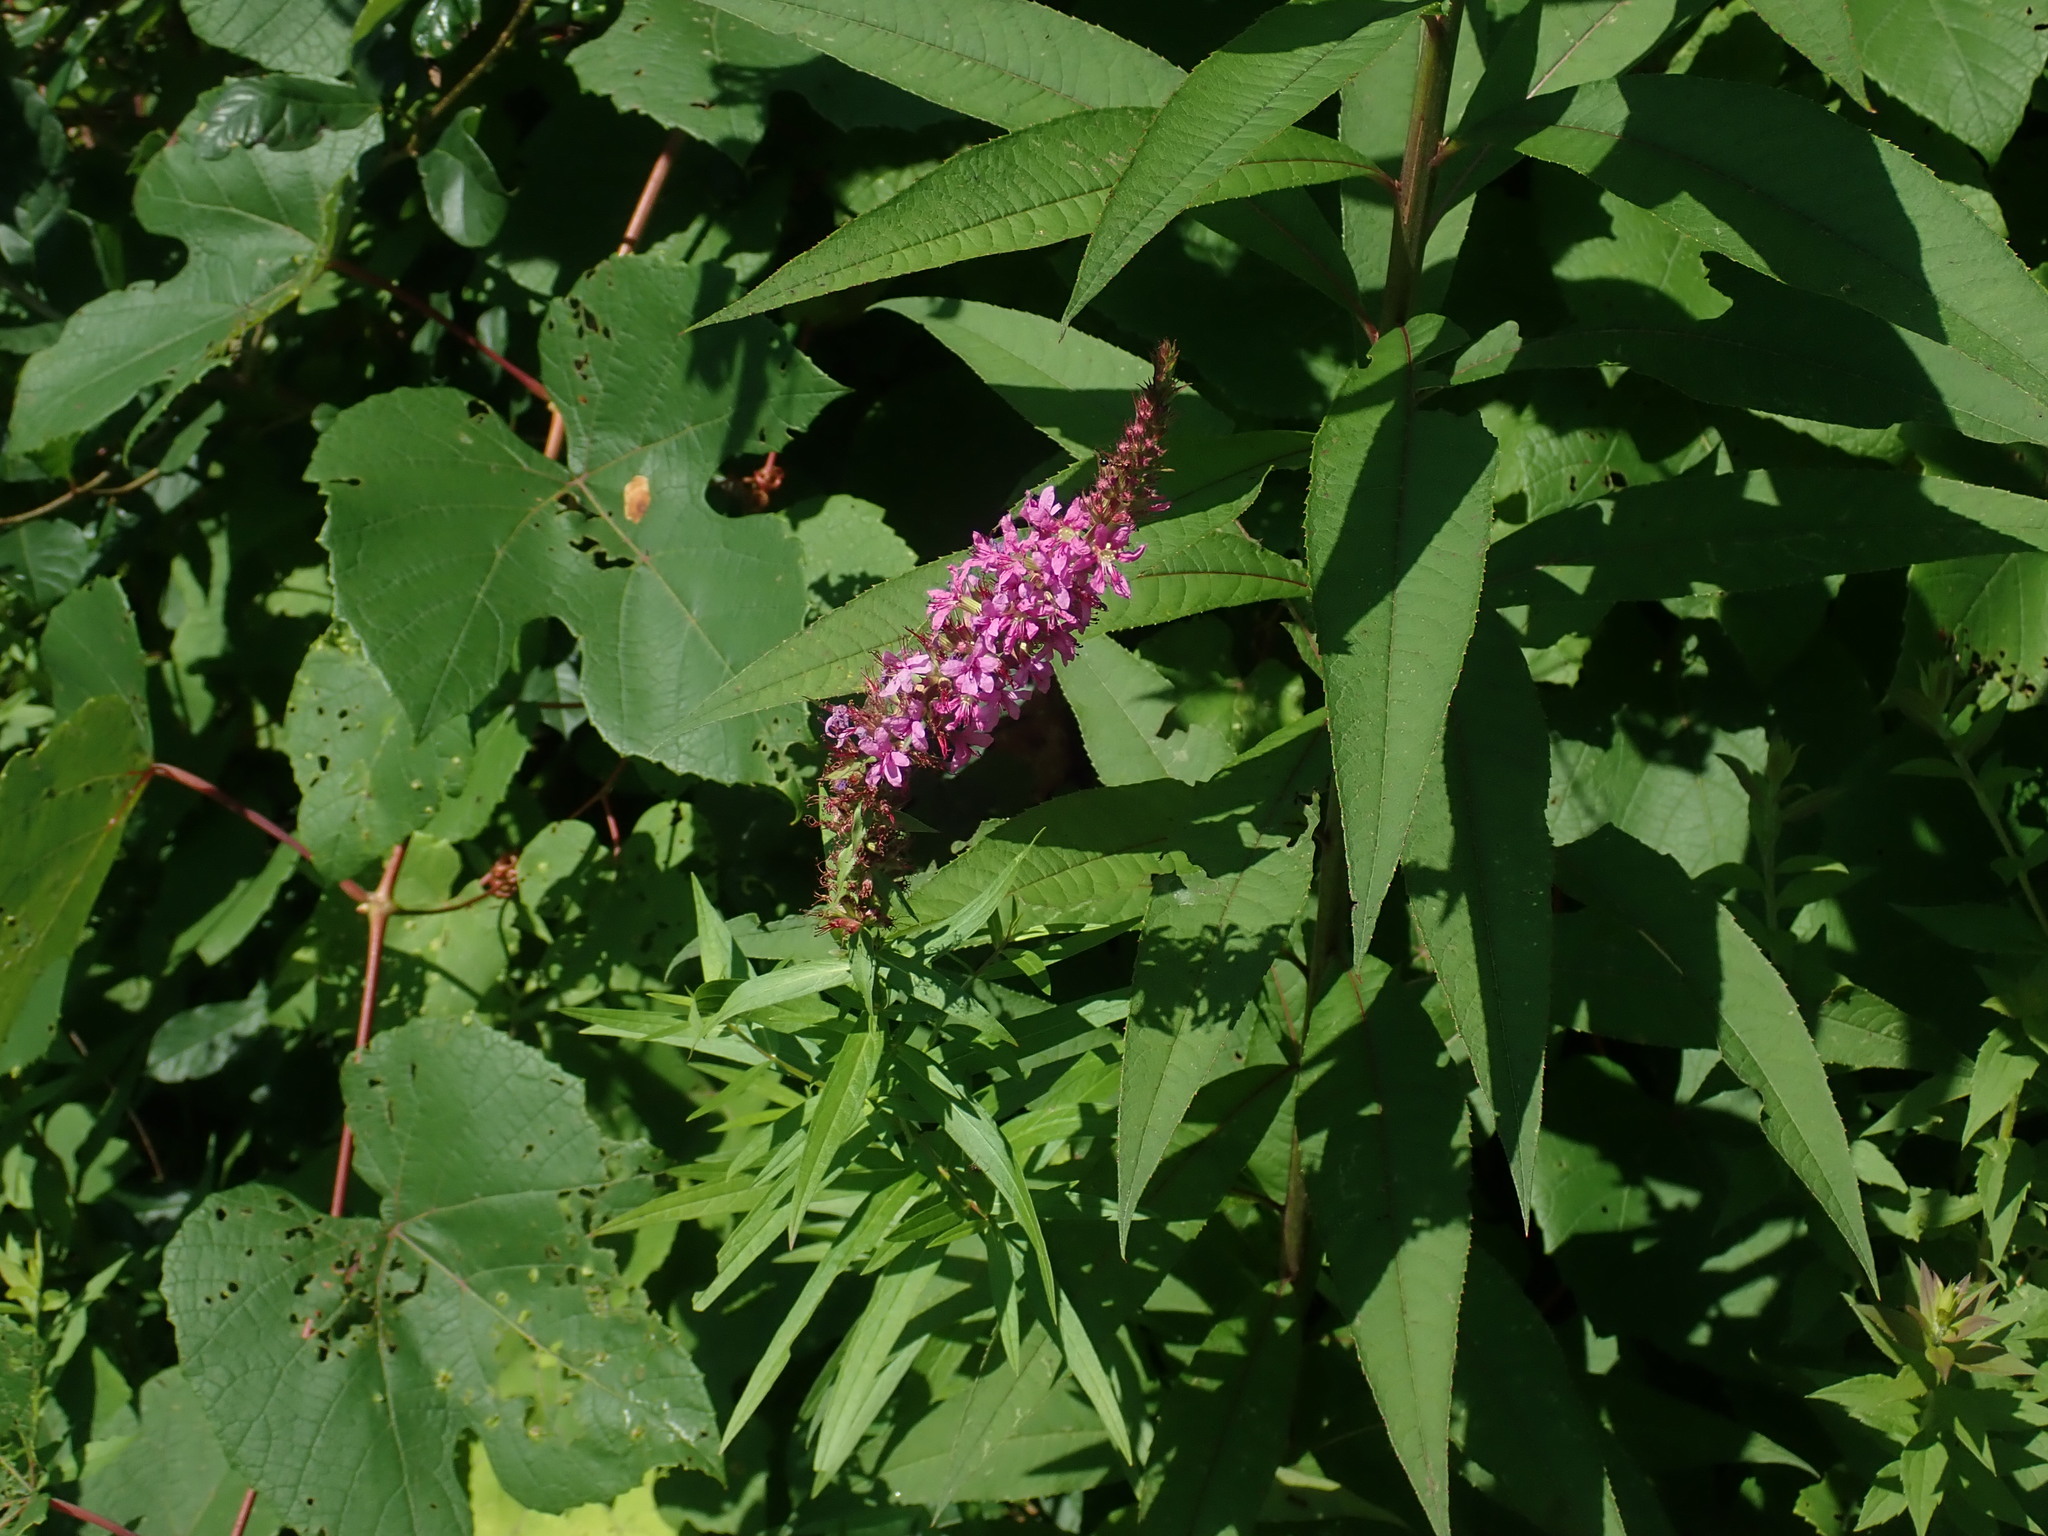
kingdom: Plantae
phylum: Tracheophyta
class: Magnoliopsida
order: Myrtales
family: Lythraceae
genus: Lythrum
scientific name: Lythrum salicaria
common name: Purple loosestrife
